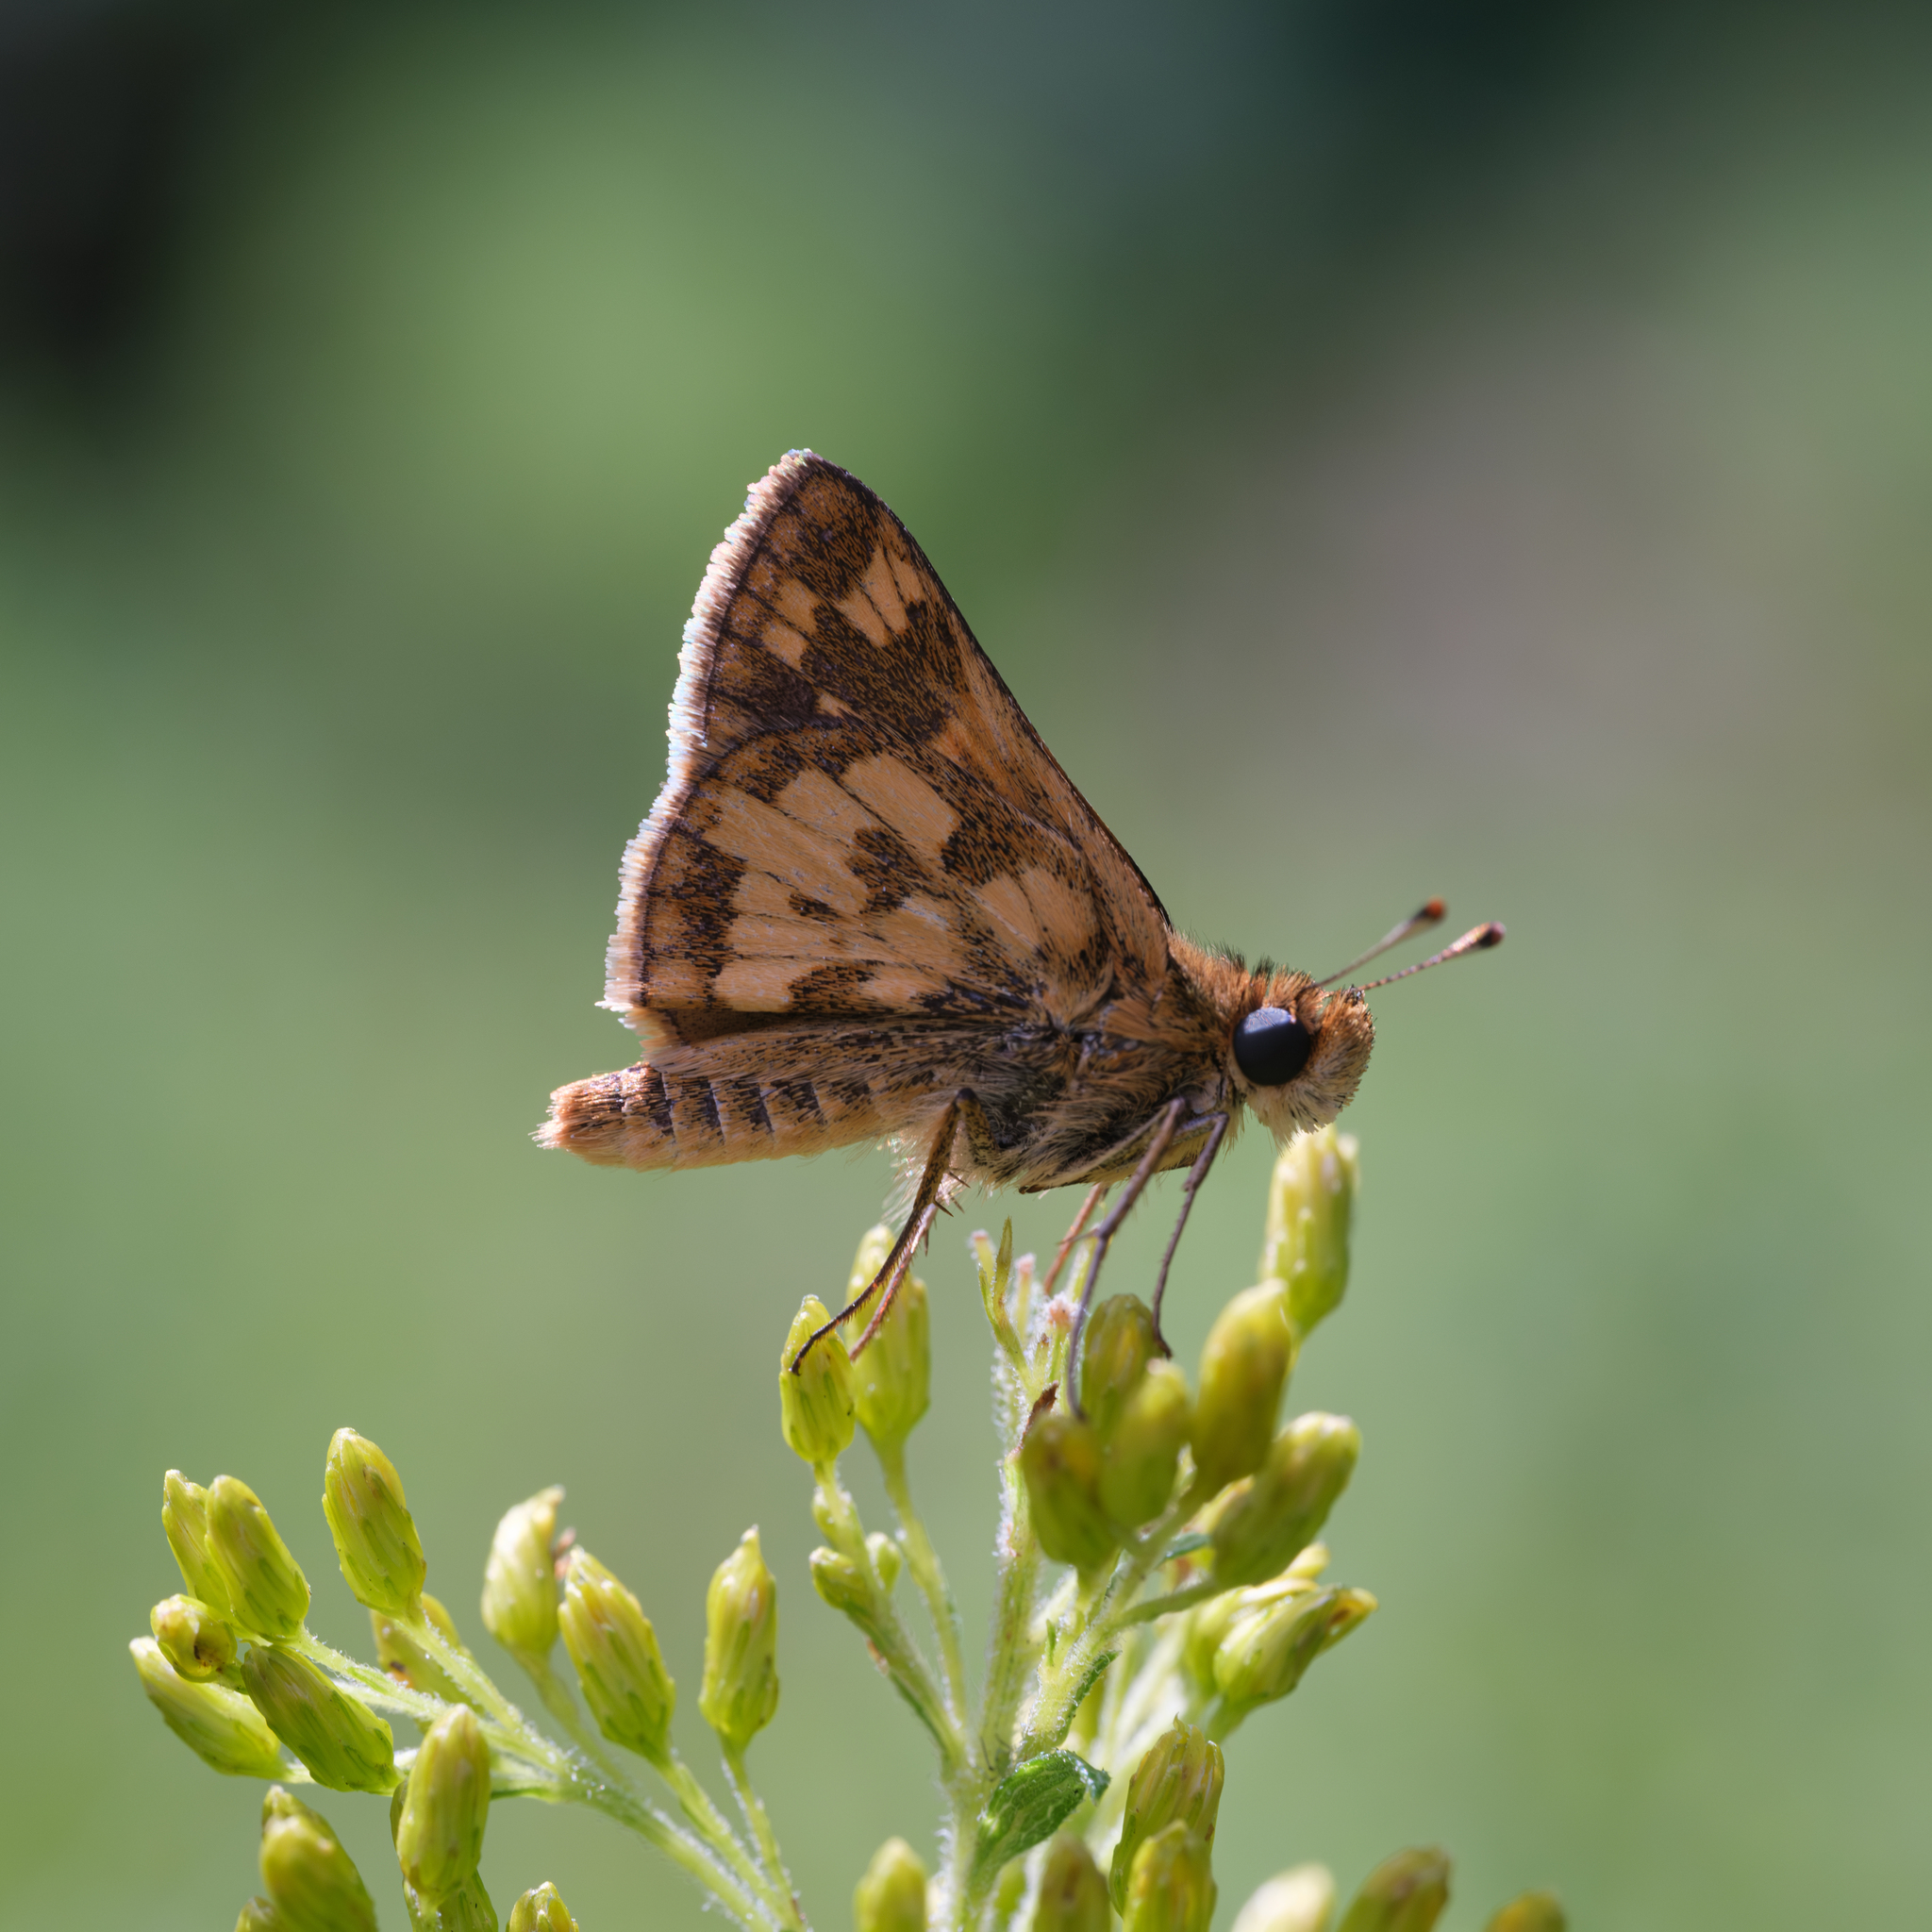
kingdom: Animalia
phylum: Arthropoda
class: Insecta
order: Lepidoptera
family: Hesperiidae
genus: Polites
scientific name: Polites coras
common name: Peck's skipper
